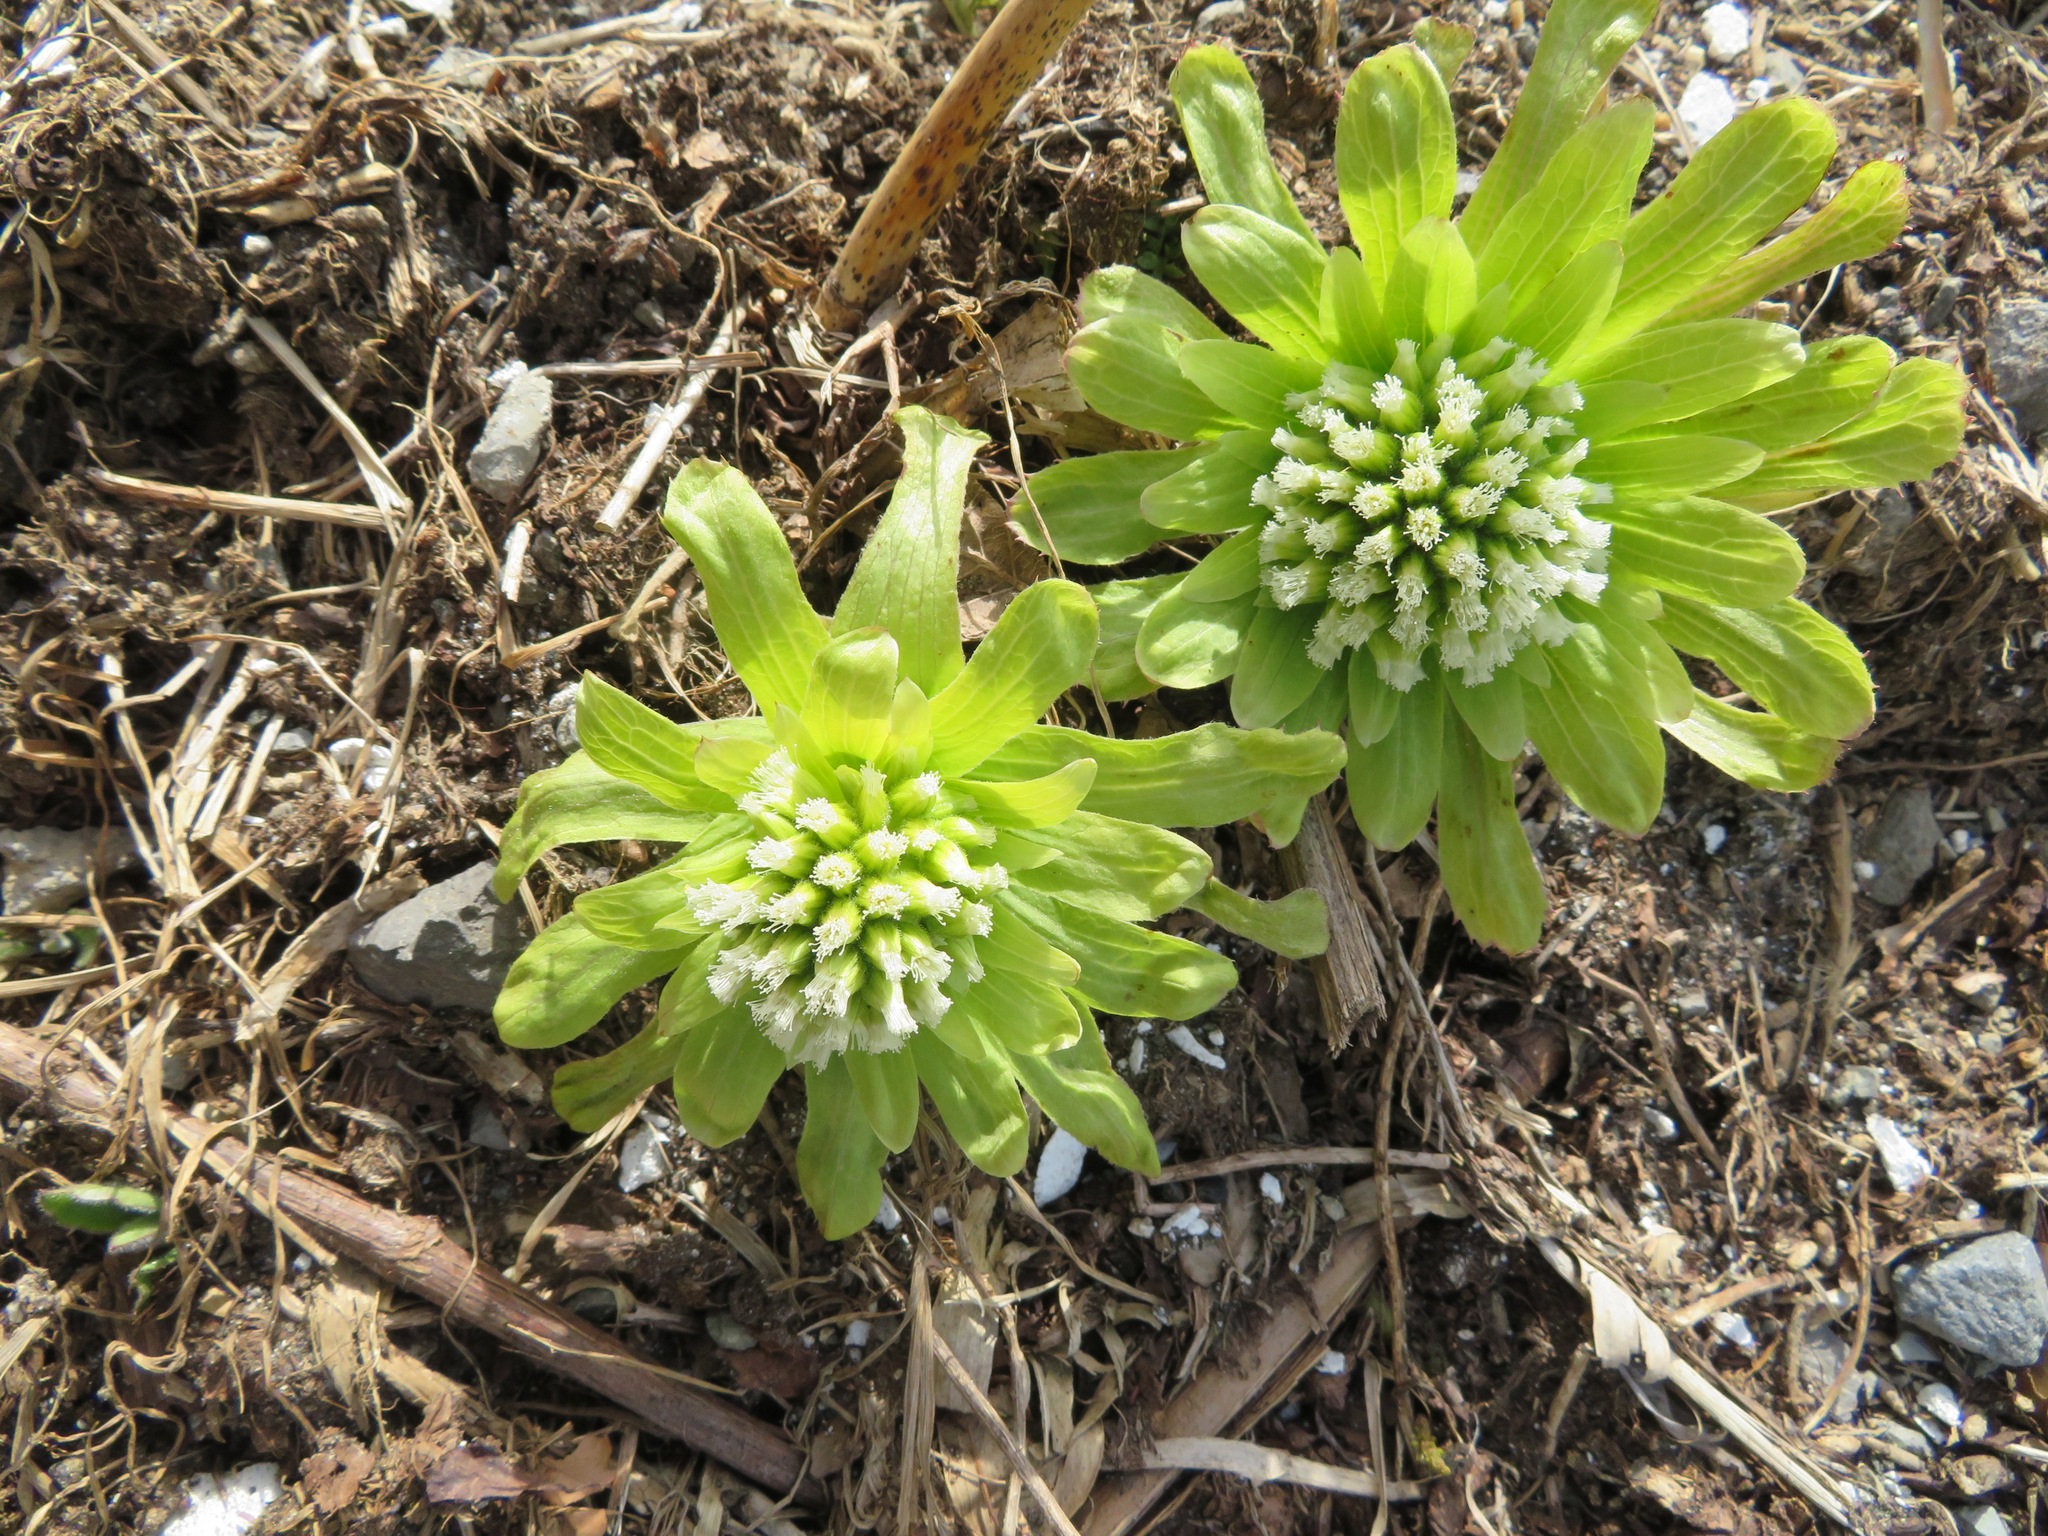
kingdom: Plantae
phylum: Tracheophyta
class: Magnoliopsida
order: Asterales
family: Asteraceae
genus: Petasites
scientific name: Petasites japonicus
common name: Giant butterbur
